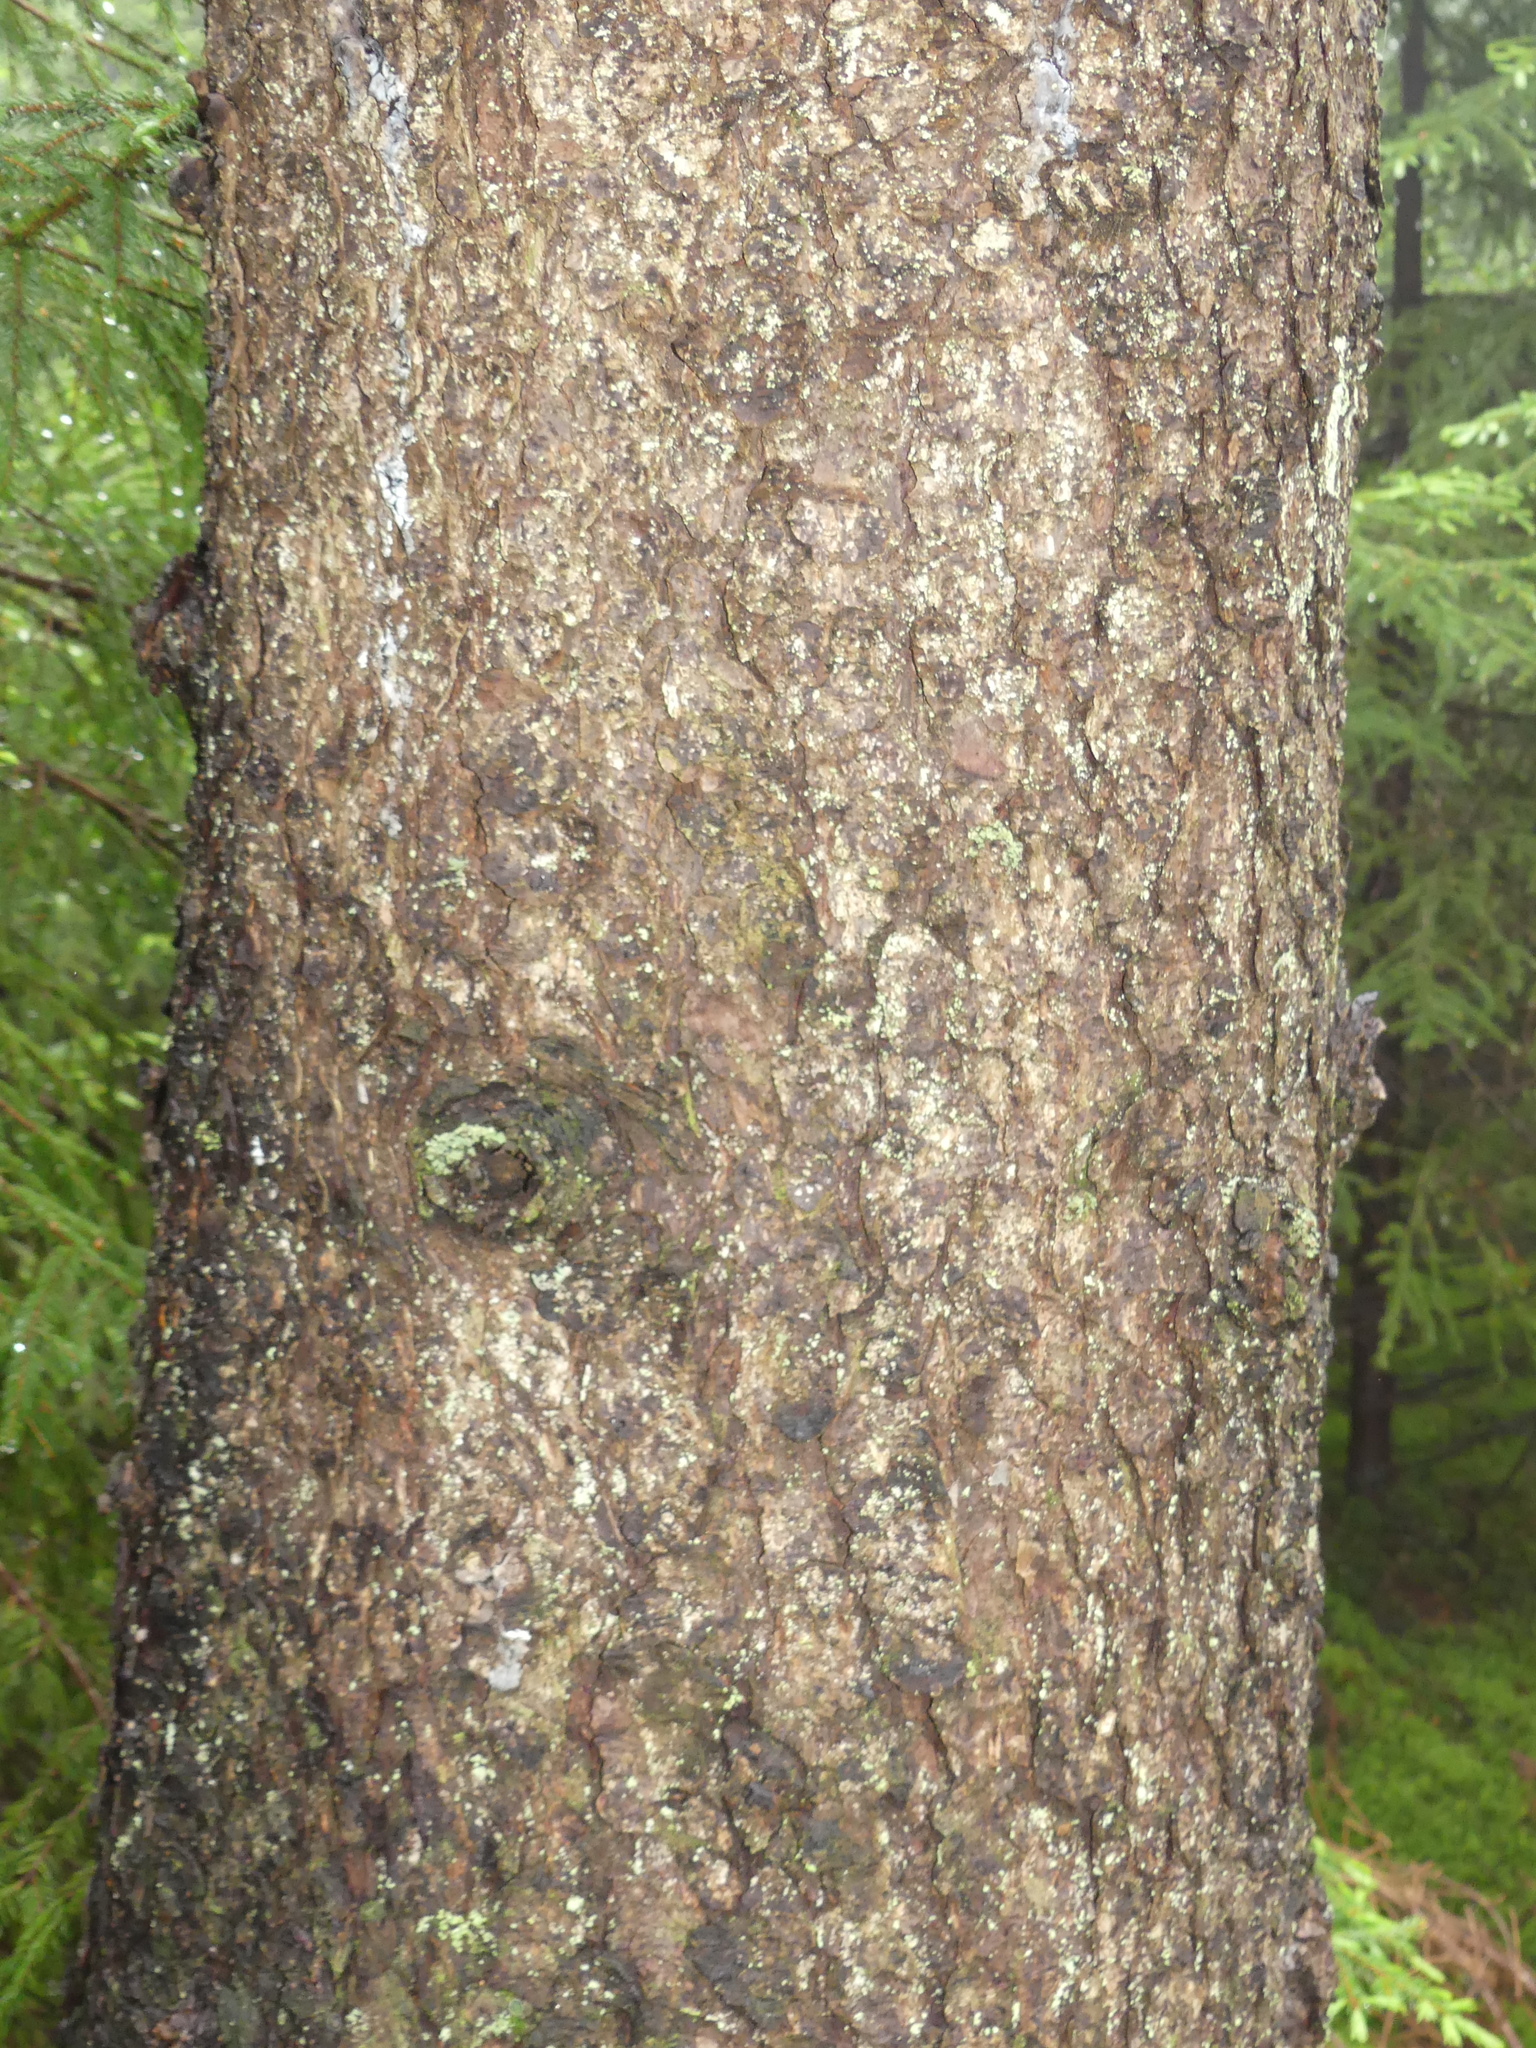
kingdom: Plantae
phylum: Tracheophyta
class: Pinopsida
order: Pinales
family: Pinaceae
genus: Picea
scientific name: Picea rubens
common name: Red spruce
